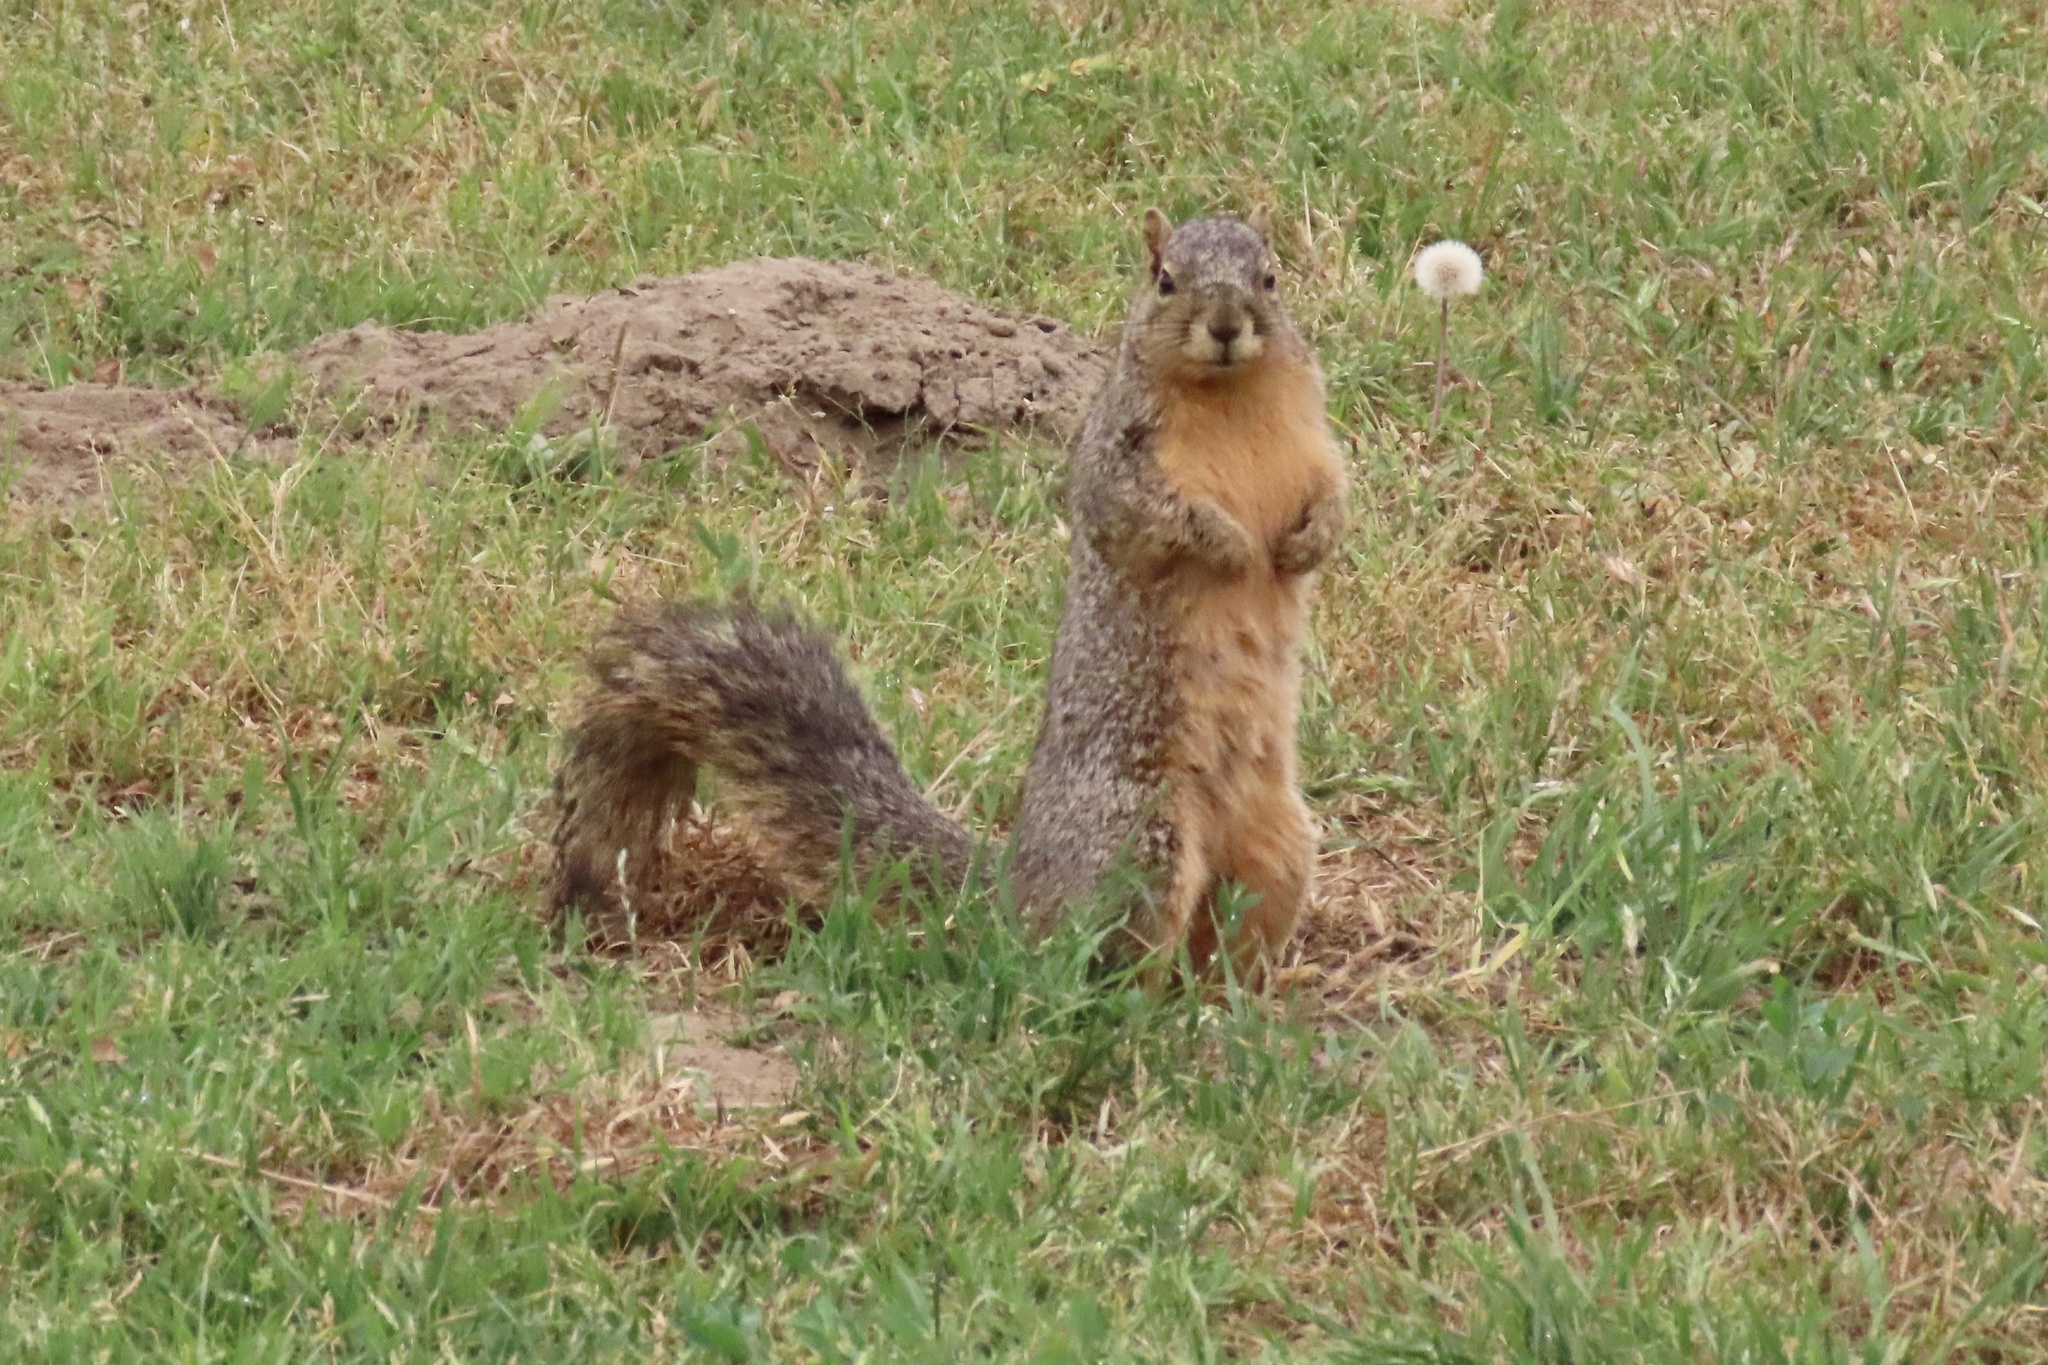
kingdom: Animalia
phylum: Chordata
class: Mammalia
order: Rodentia
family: Sciuridae
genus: Sciurus
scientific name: Sciurus niger
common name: Fox squirrel
